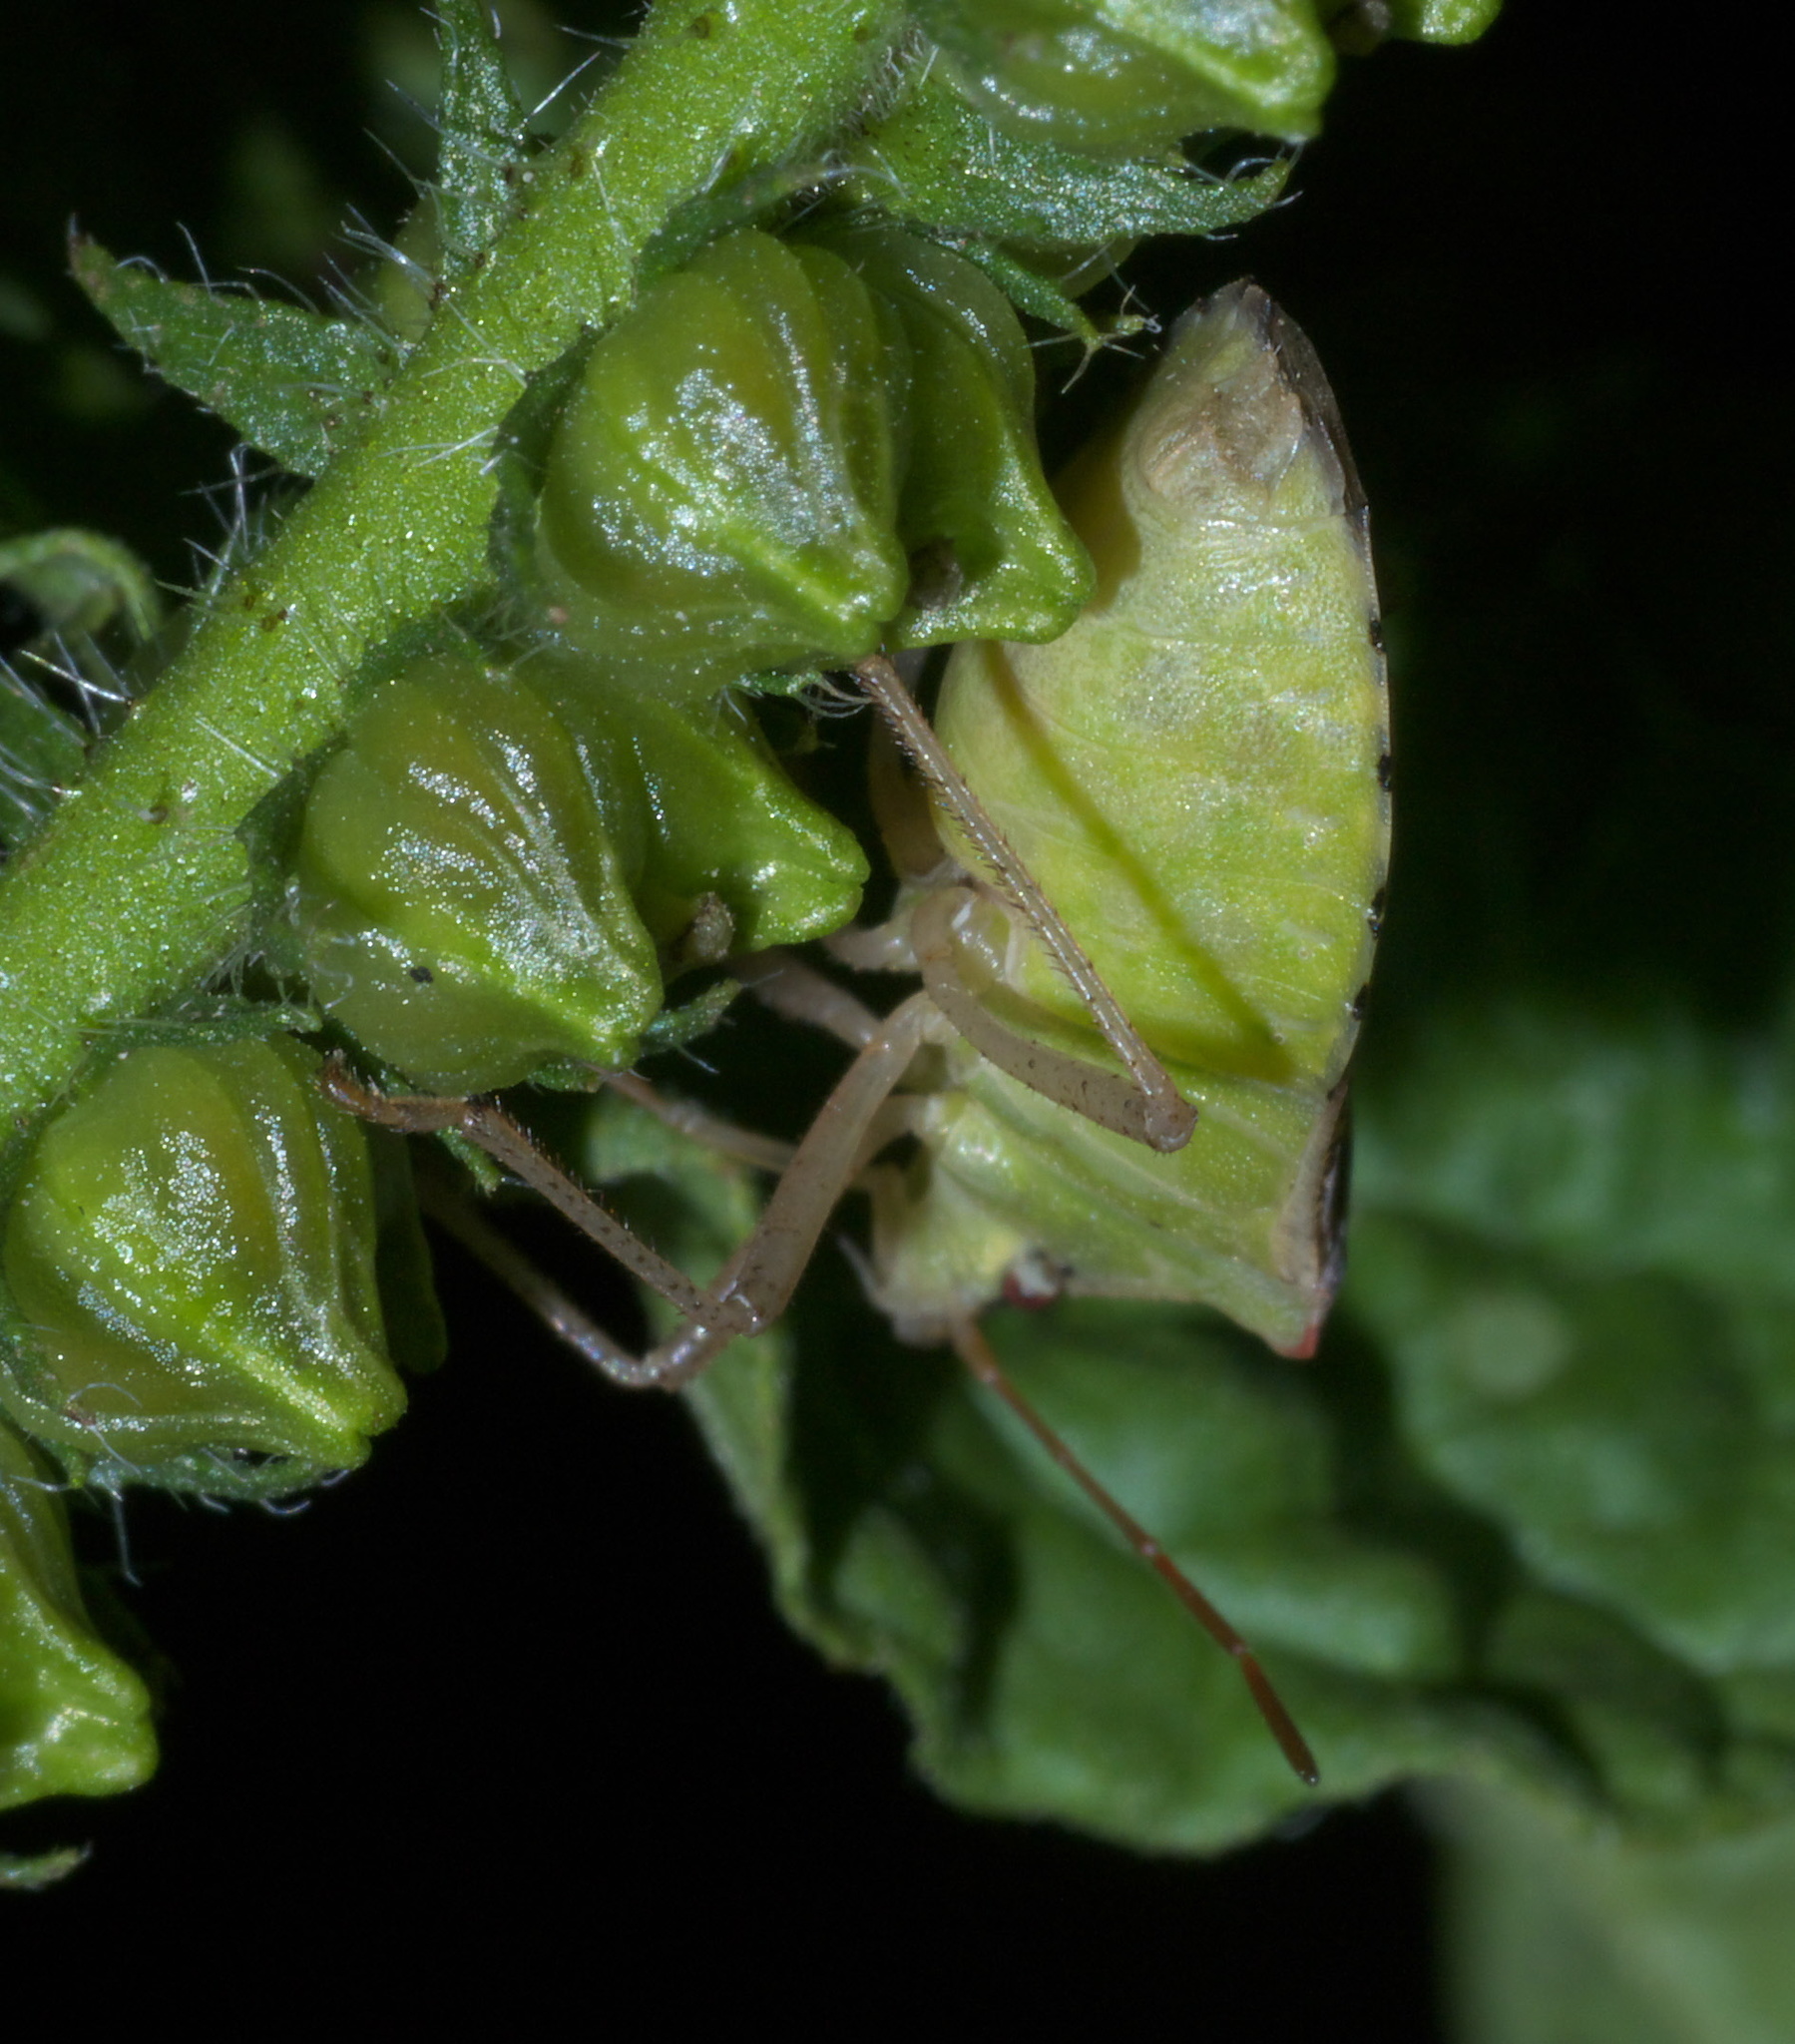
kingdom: Animalia
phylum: Arthropoda
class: Insecta
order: Hemiptera
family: Pentatomidae
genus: Euschistus
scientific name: Euschistus servus
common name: Brown stink bug
